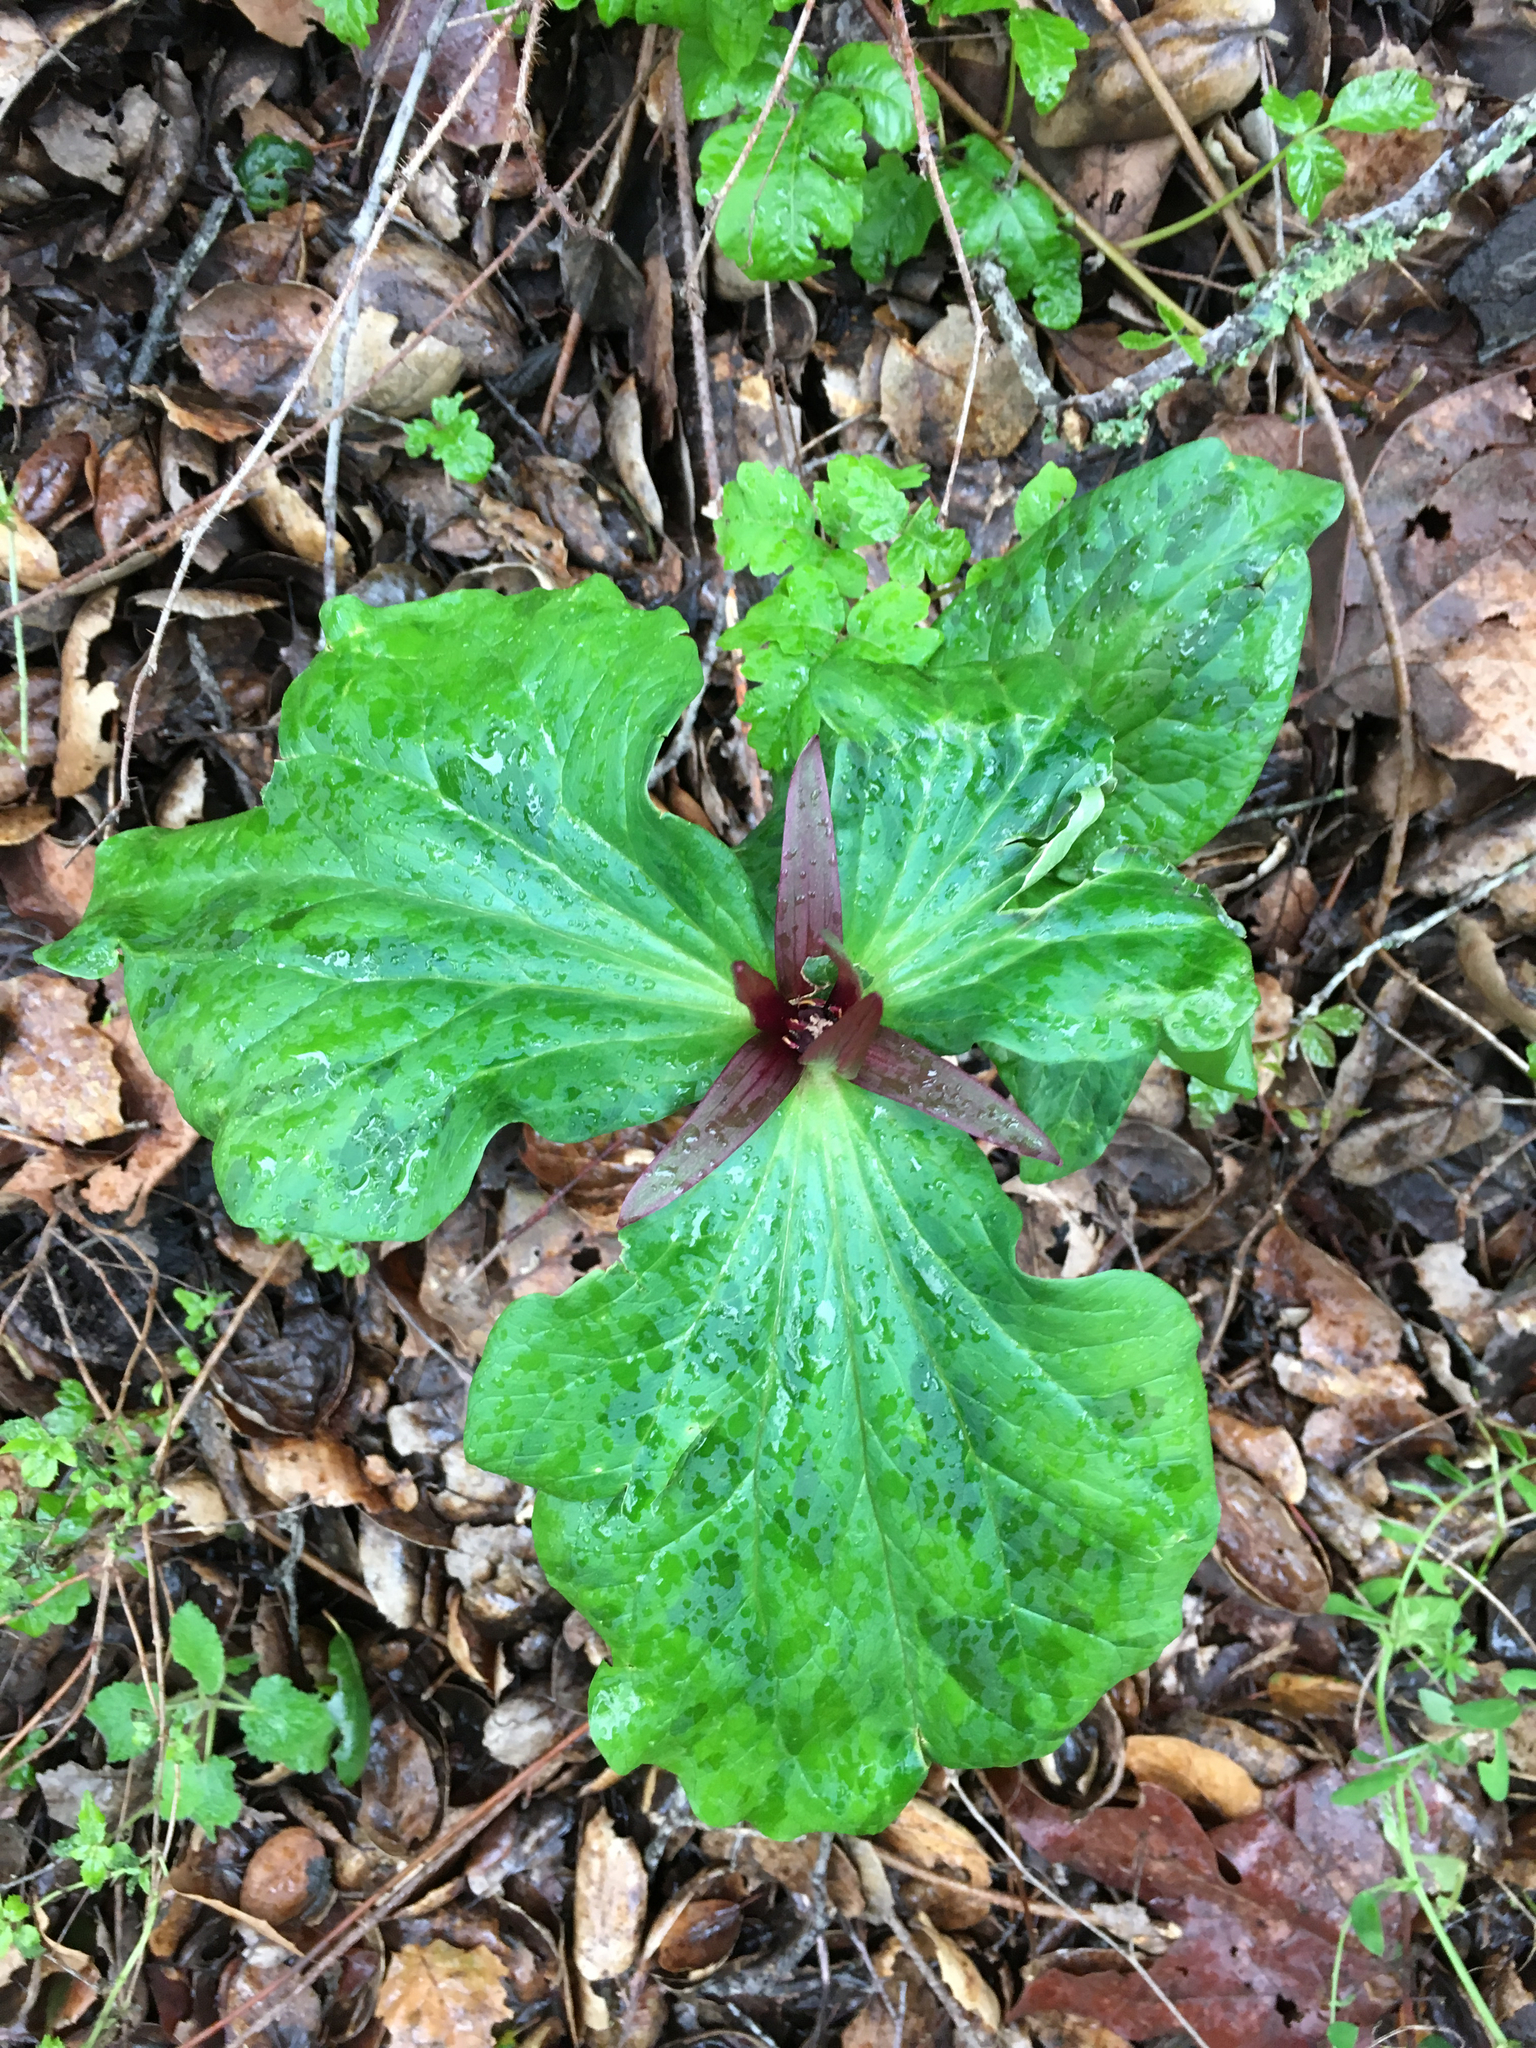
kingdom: Plantae
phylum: Tracheophyta
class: Liliopsida
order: Liliales
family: Melanthiaceae
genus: Trillium
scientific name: Trillium angustipetalum
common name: Narrow-petaled trillium
